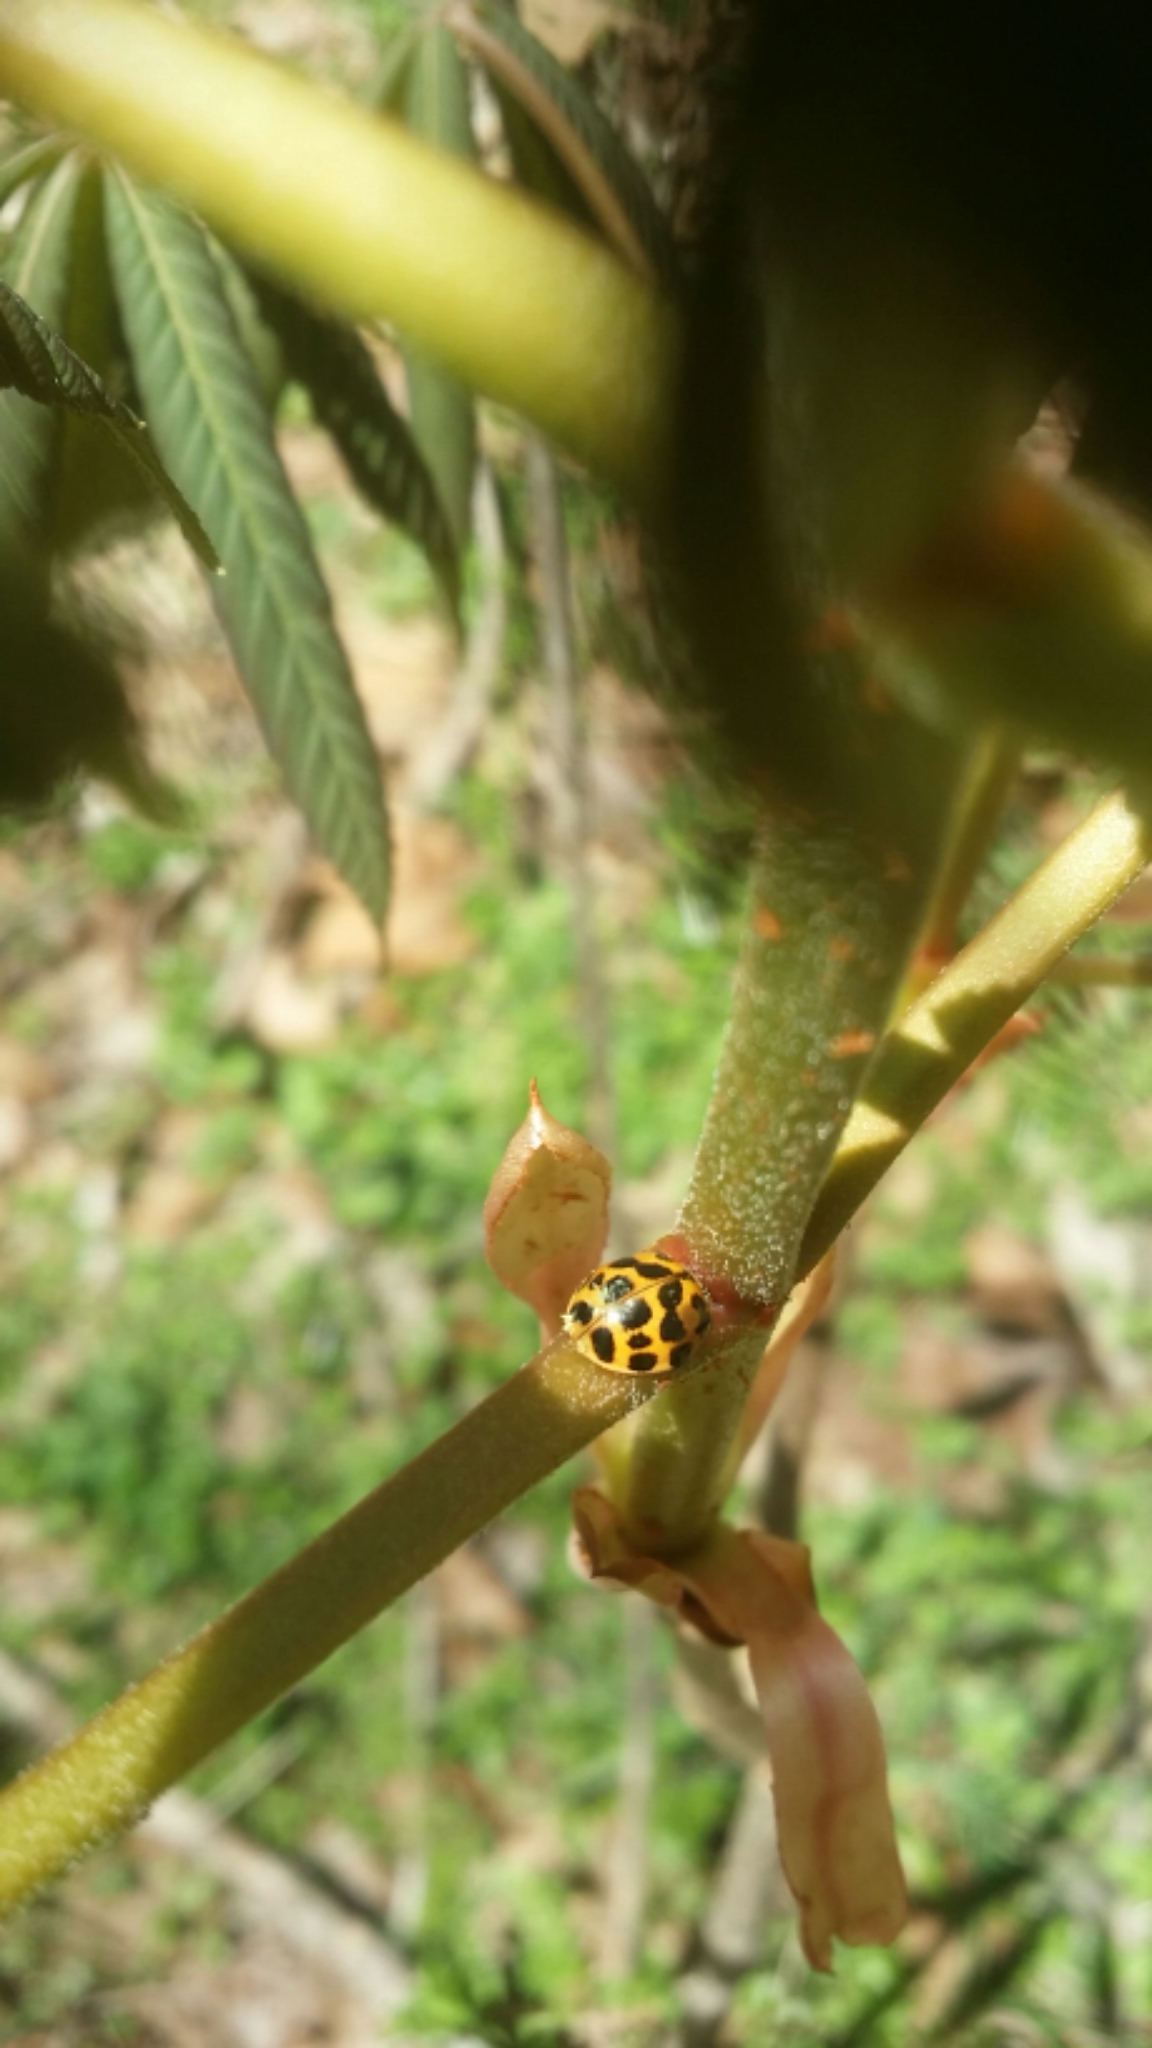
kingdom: Animalia
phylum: Arthropoda
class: Insecta
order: Coleoptera
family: Coccinellidae
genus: Harmonia
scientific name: Harmonia axyridis
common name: Harlequin ladybird
